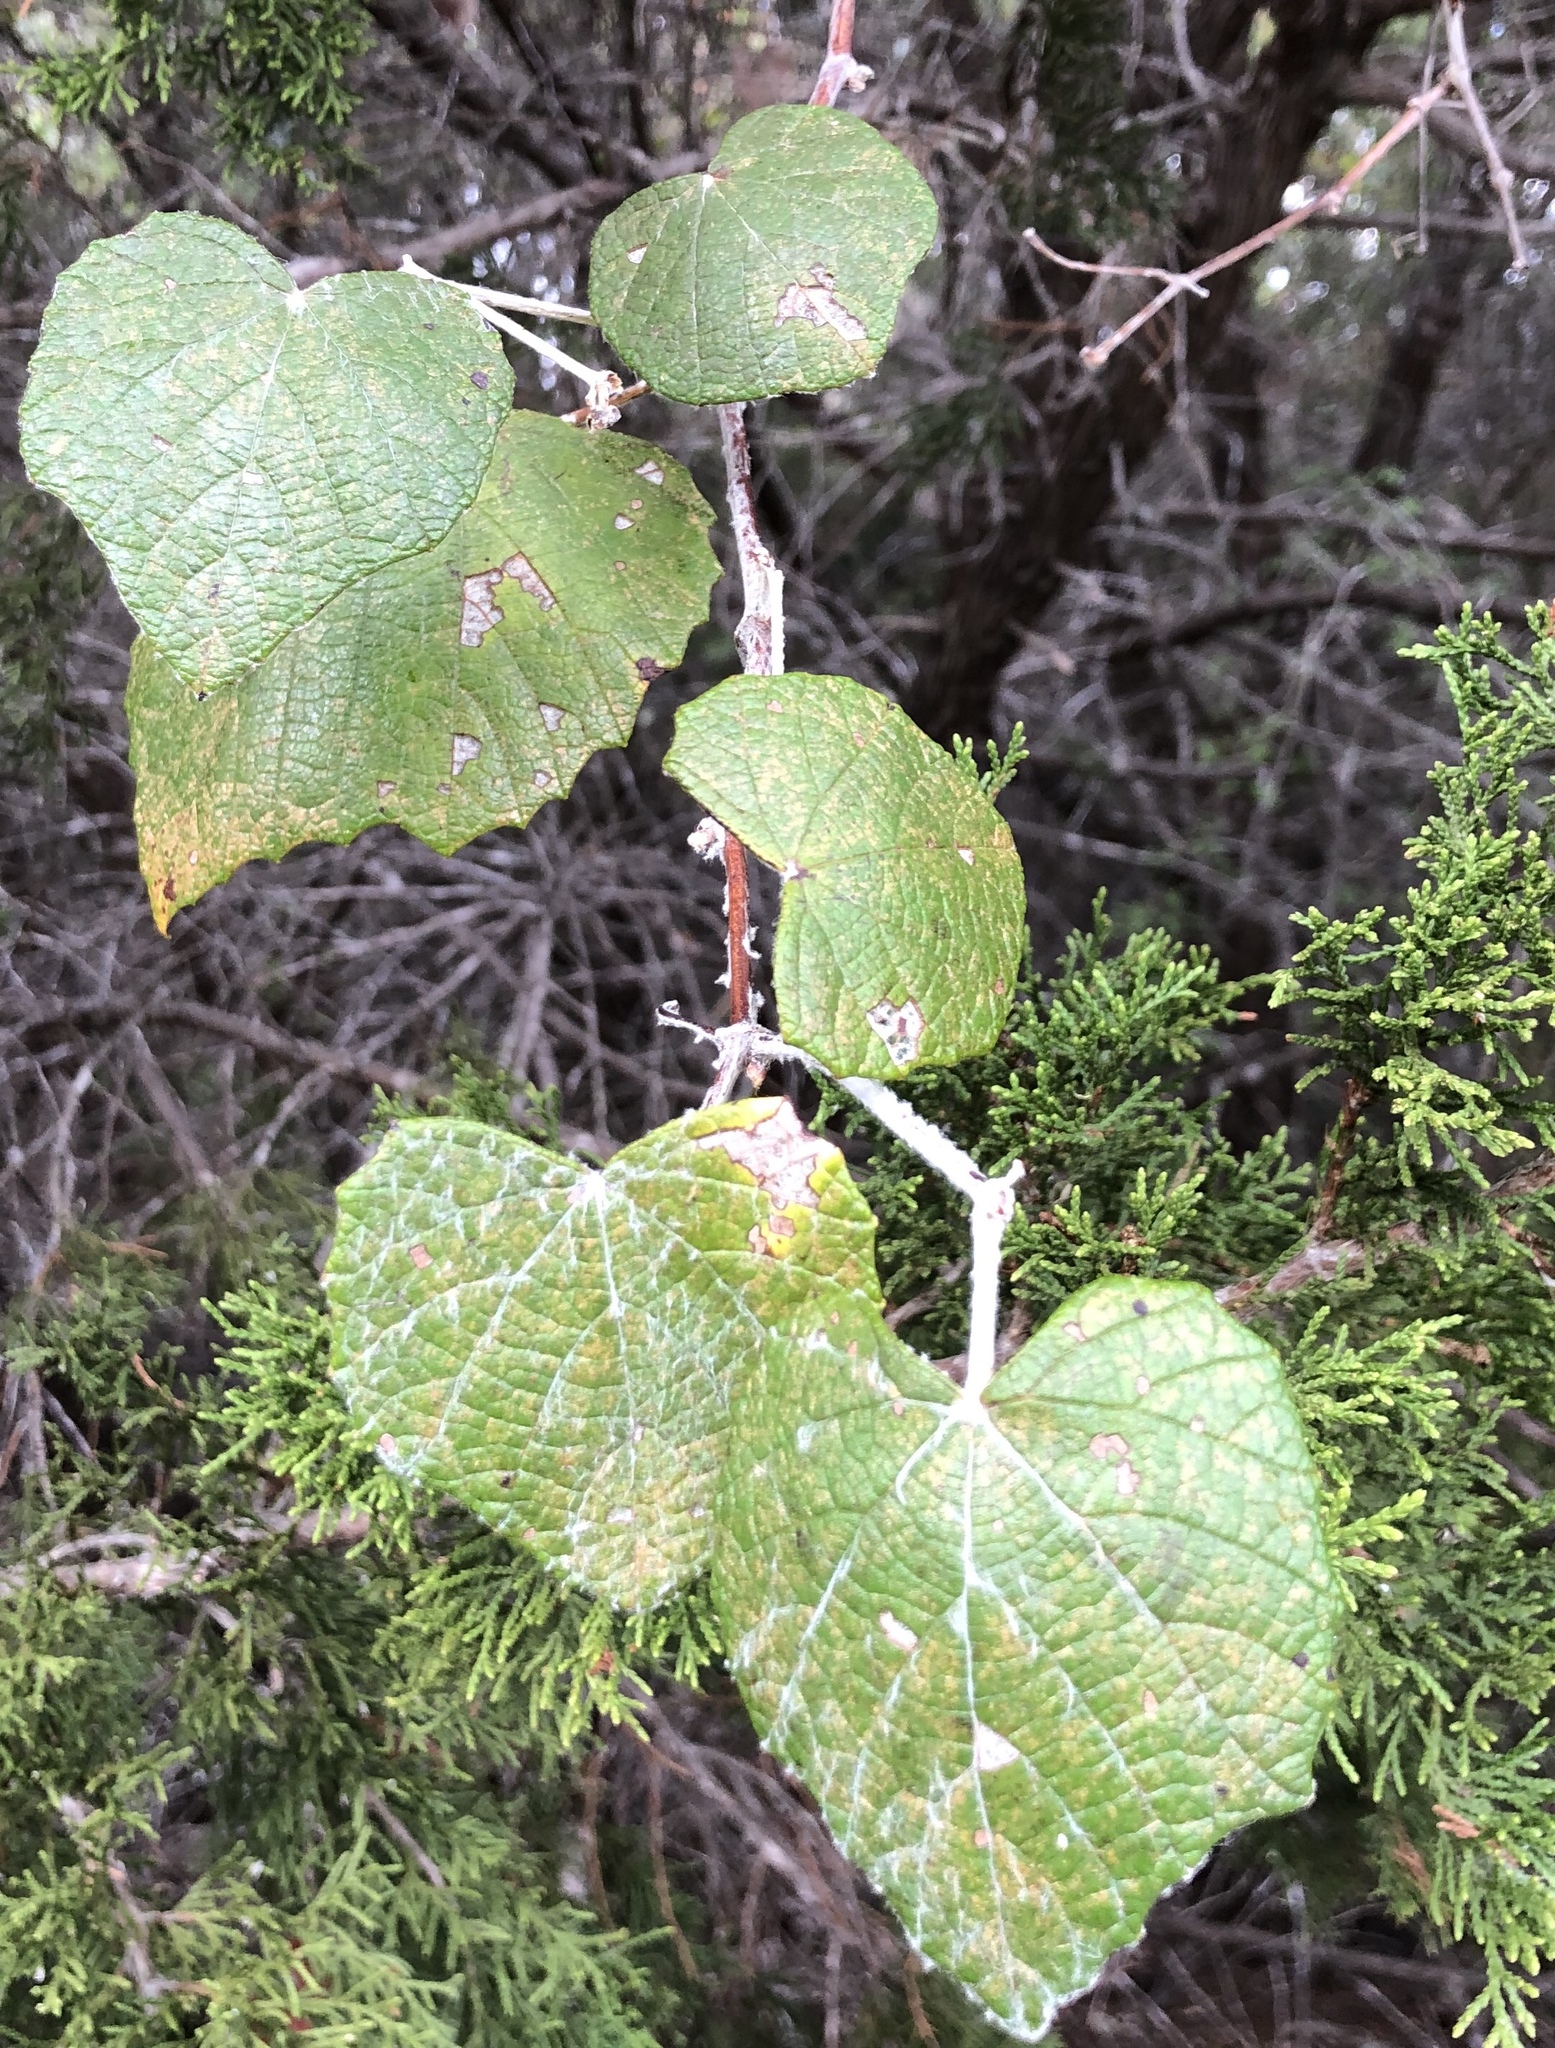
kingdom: Plantae
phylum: Tracheophyta
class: Magnoliopsida
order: Vitales
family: Vitaceae
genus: Vitis
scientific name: Vitis mustangensis
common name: Mustang grape
